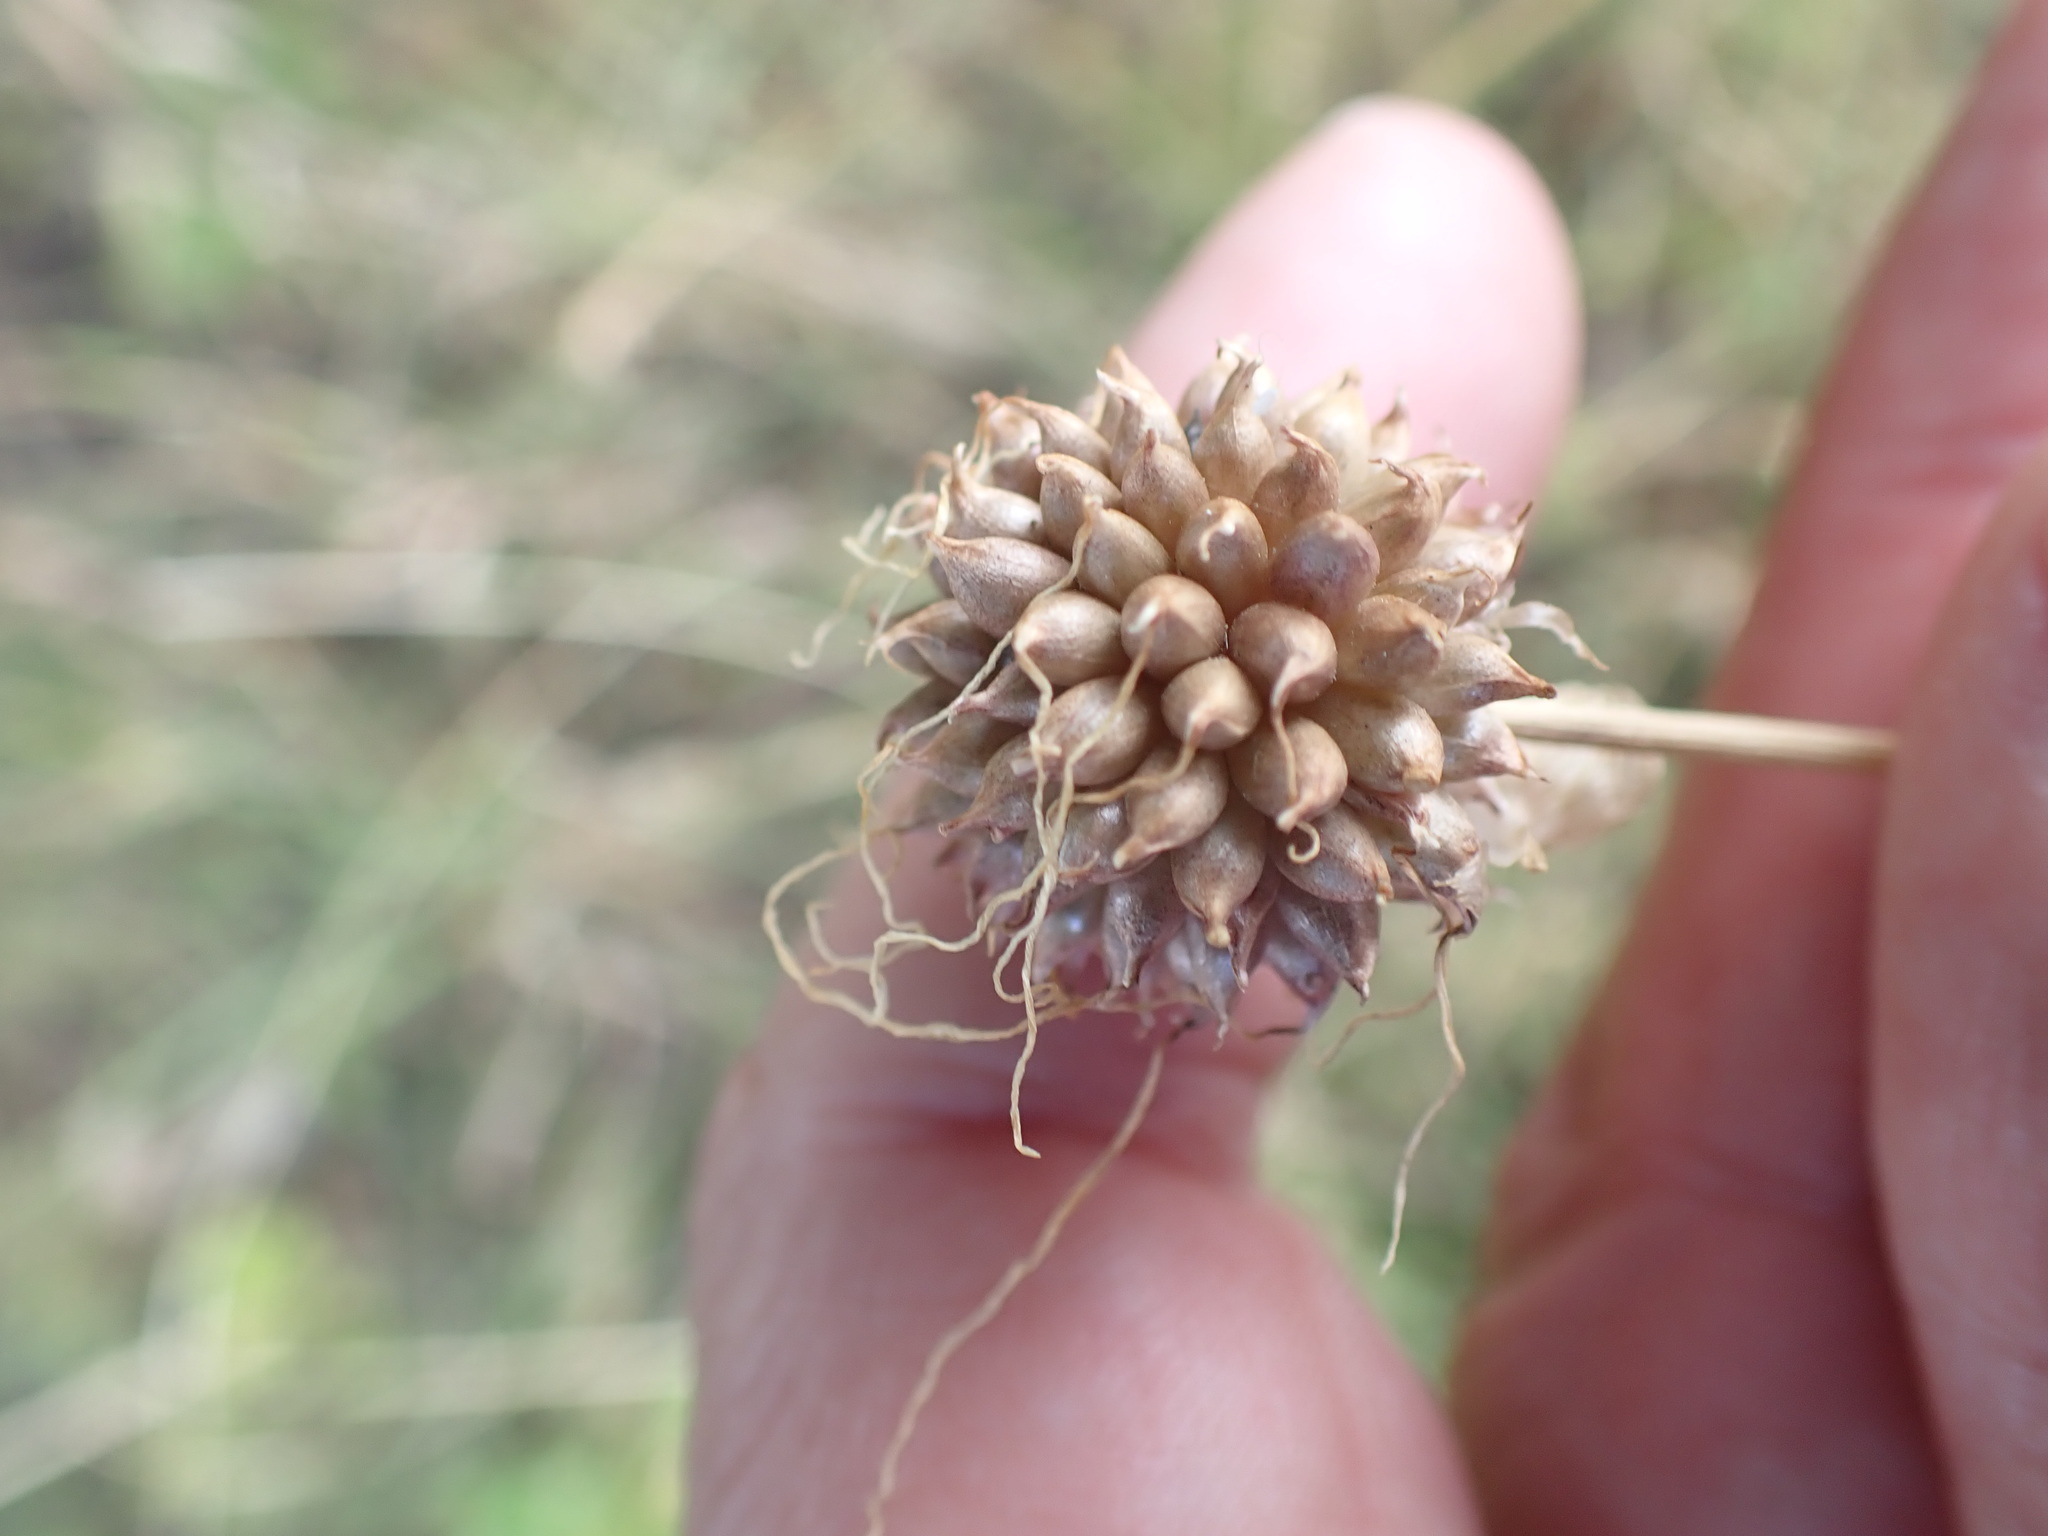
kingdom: Plantae
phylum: Tracheophyta
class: Liliopsida
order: Asparagales
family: Amaryllidaceae
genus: Allium
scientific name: Allium vineale
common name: Crow garlic
